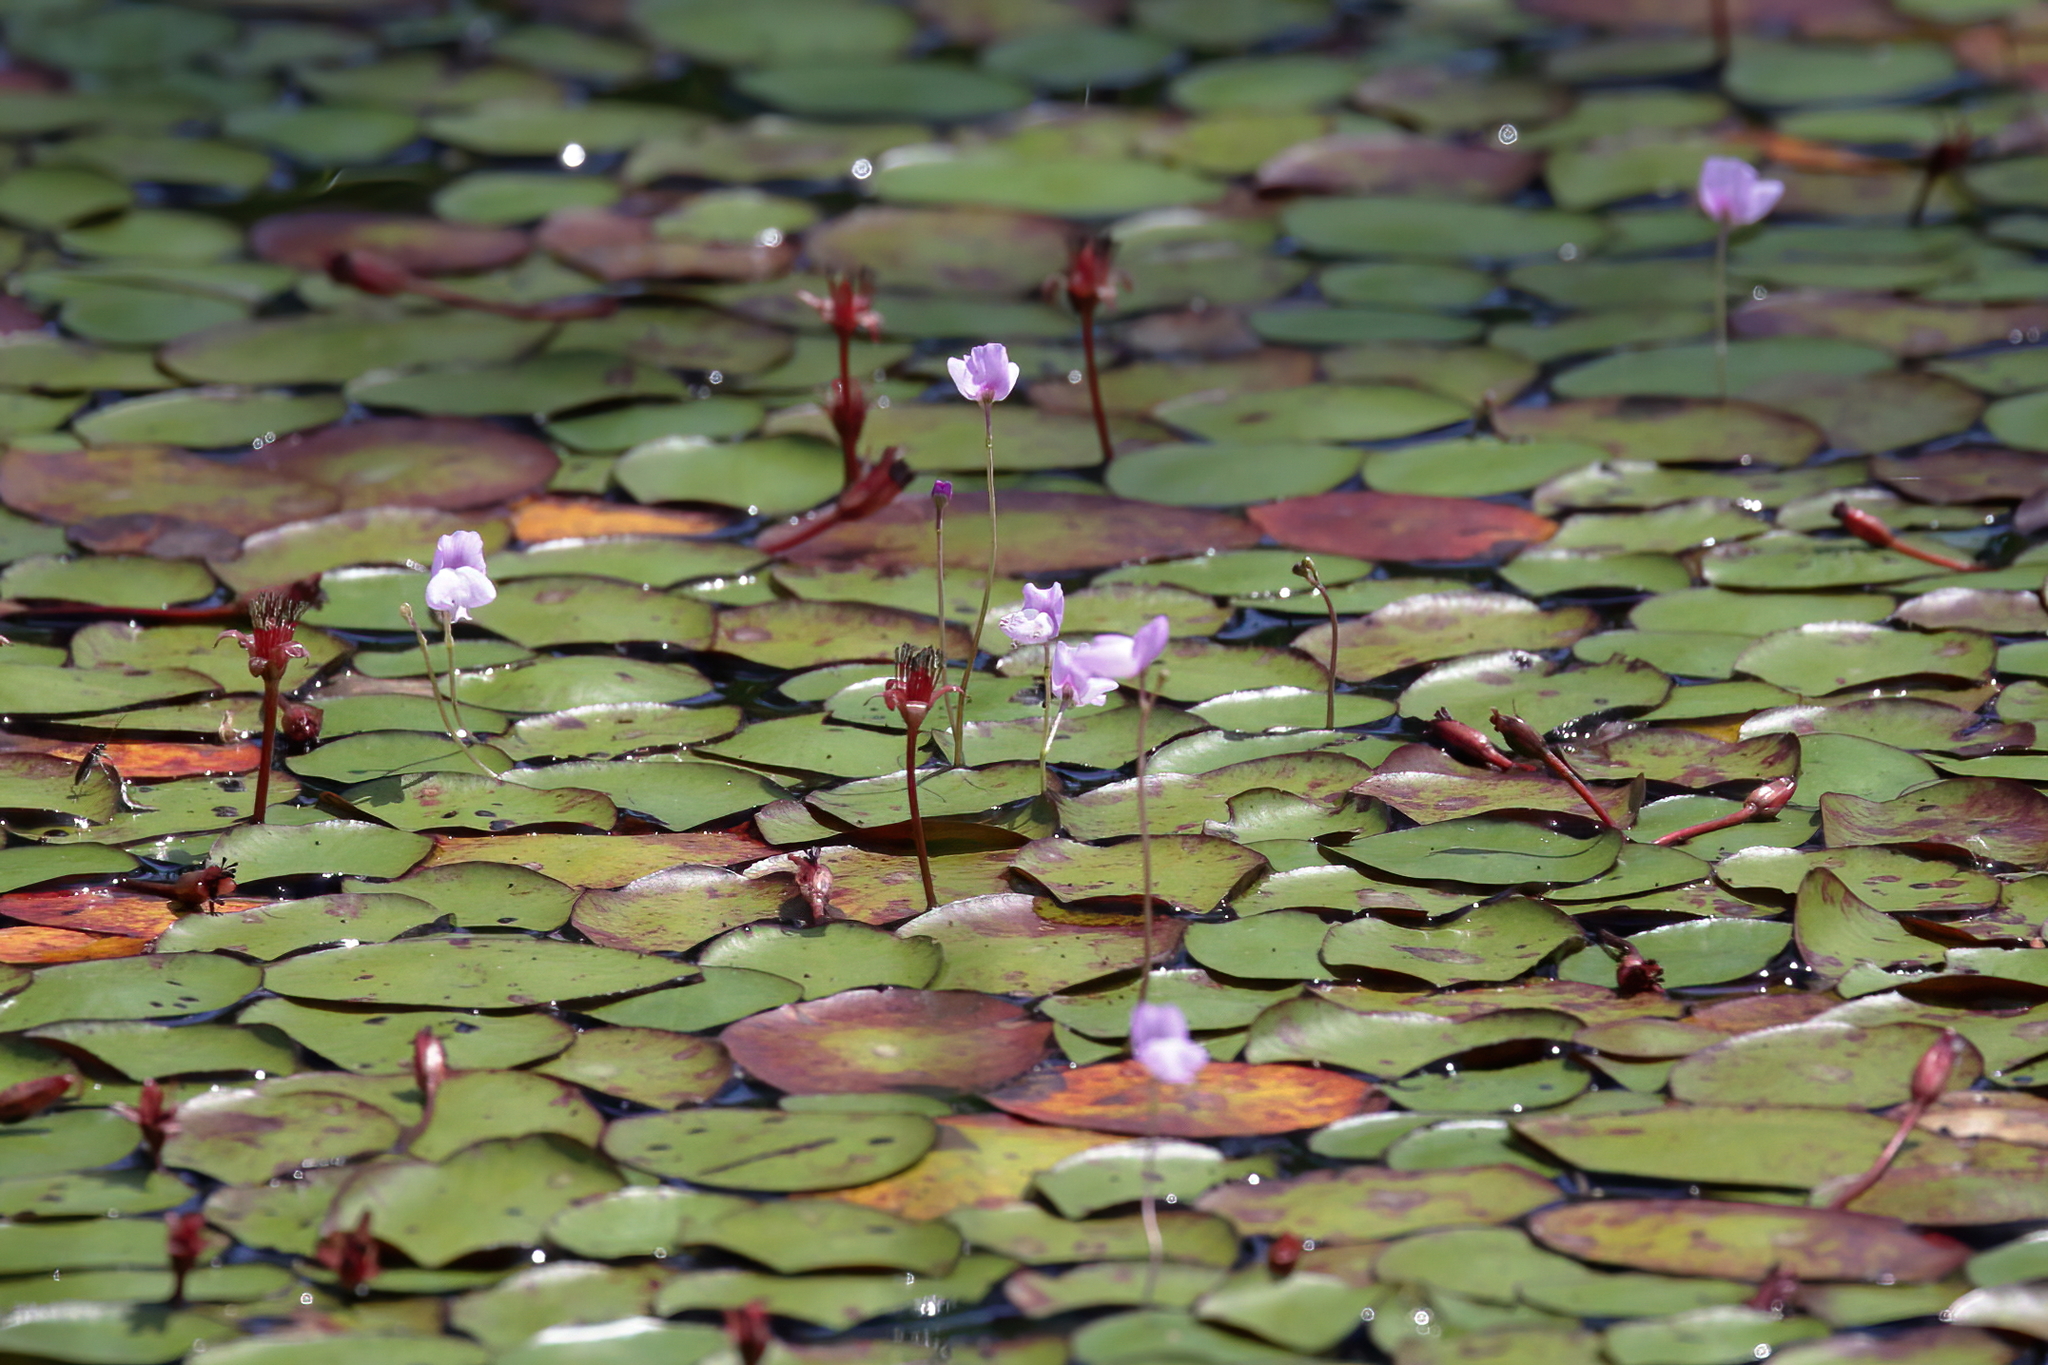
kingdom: Plantae
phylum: Tracheophyta
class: Magnoliopsida
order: Lamiales
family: Lentibulariaceae
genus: Utricularia
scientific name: Utricularia purpurea
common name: Eastern purple bladderwort
